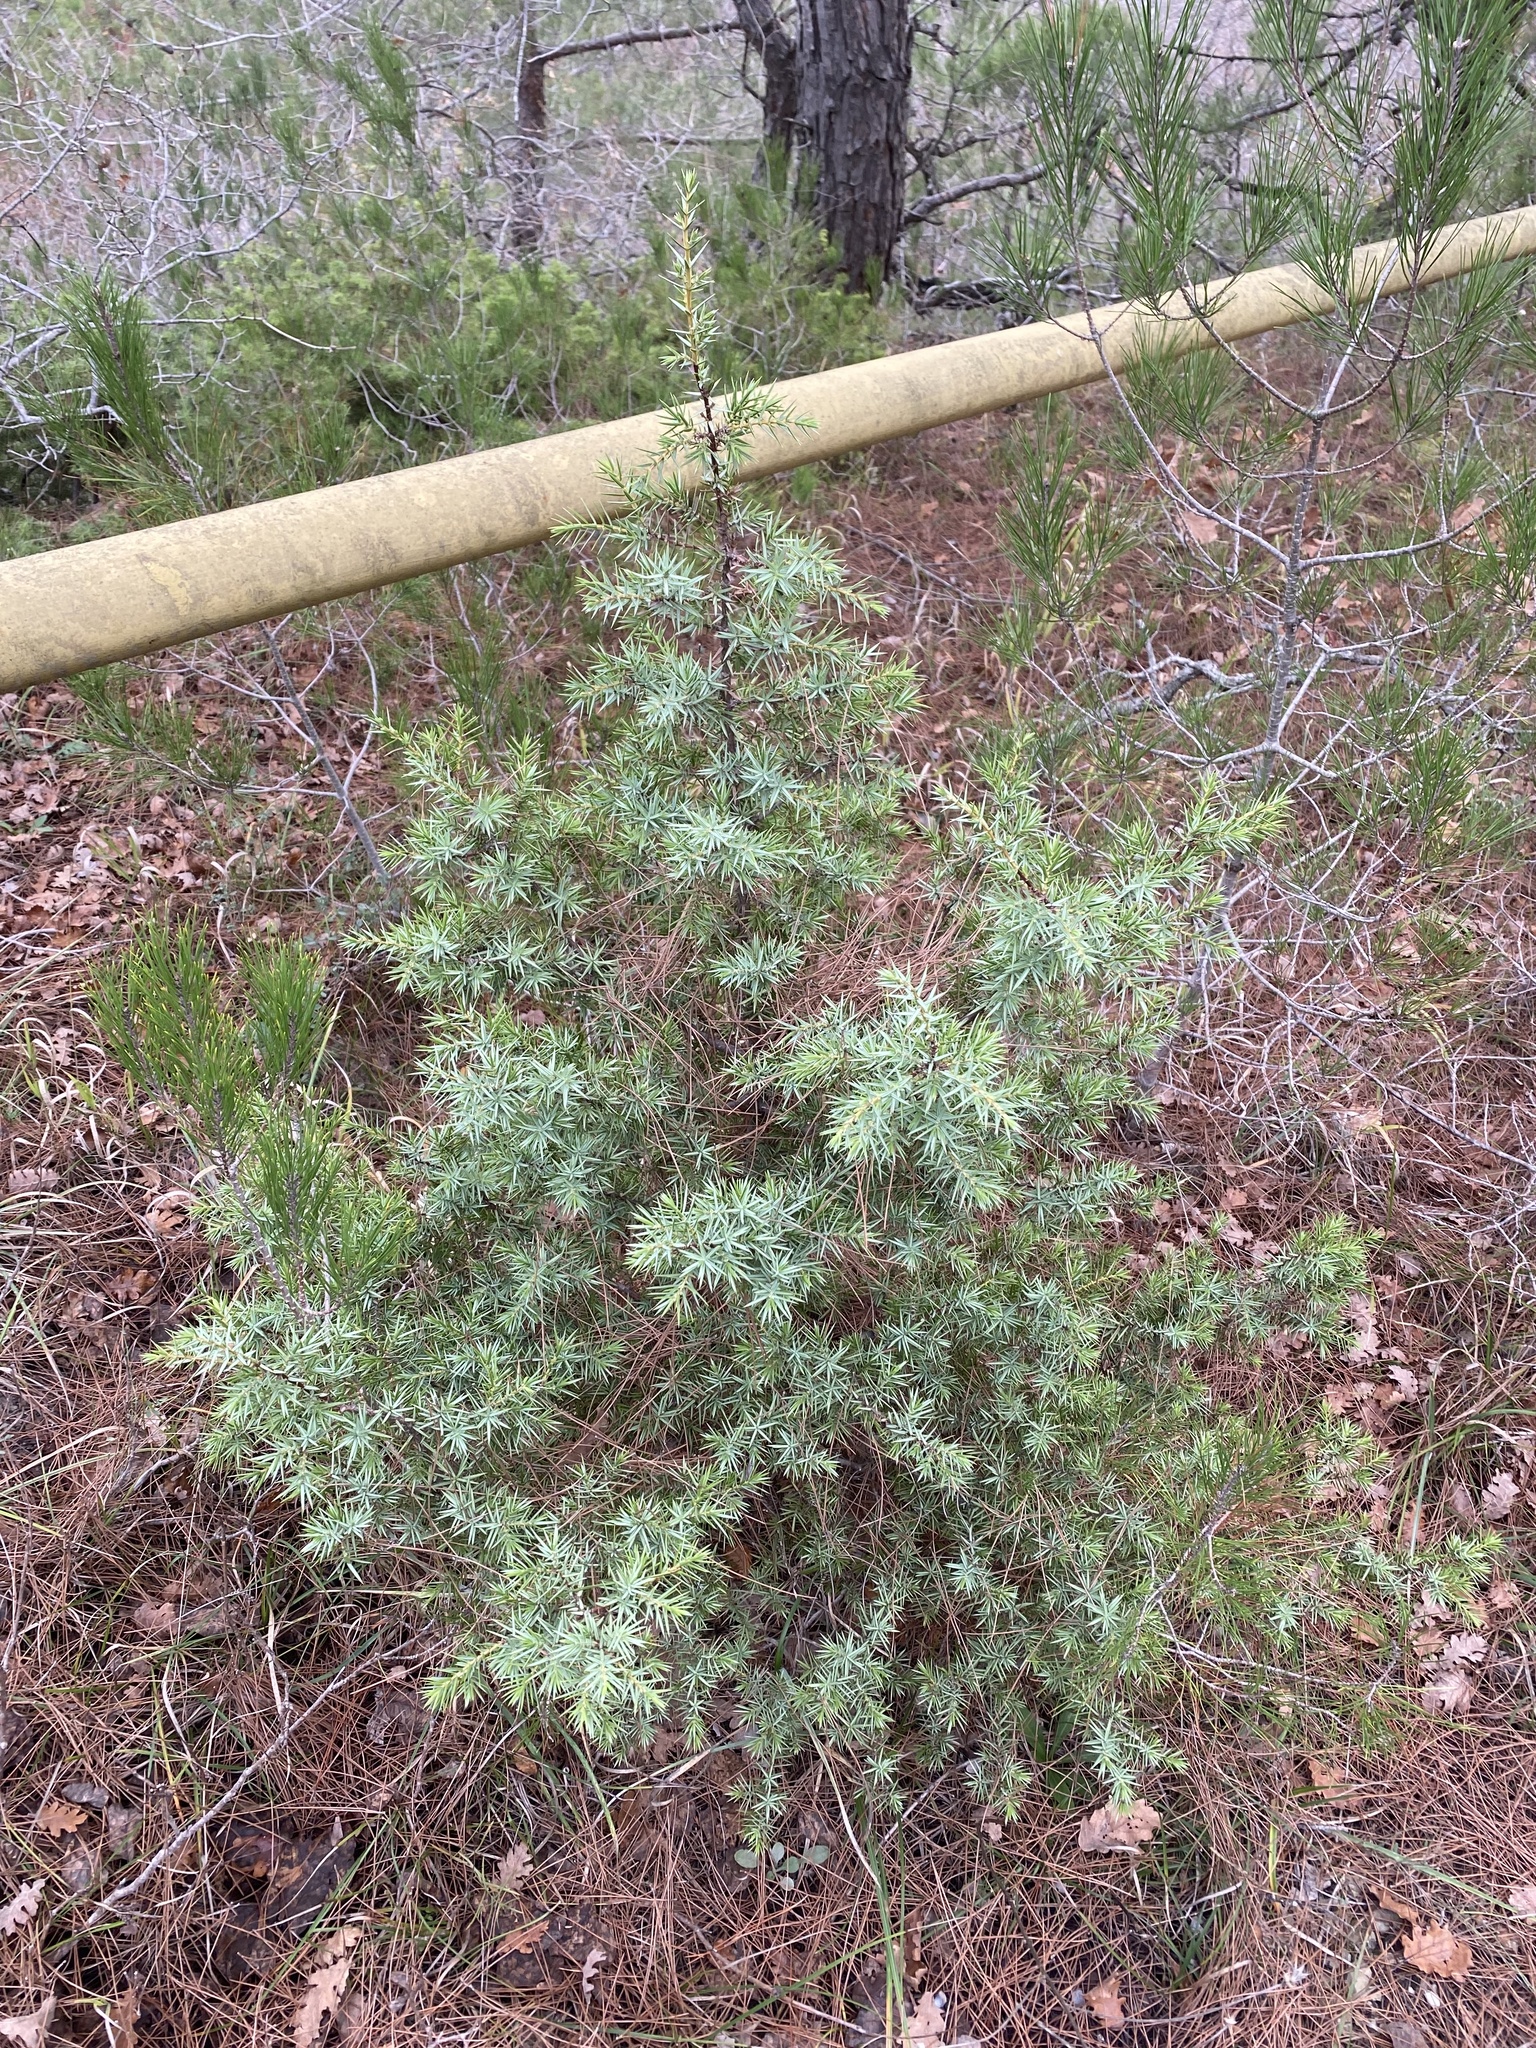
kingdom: Plantae
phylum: Tracheophyta
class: Pinopsida
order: Pinales
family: Cupressaceae
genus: Juniperus
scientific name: Juniperus oxycedrus
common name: Prickly juniper
